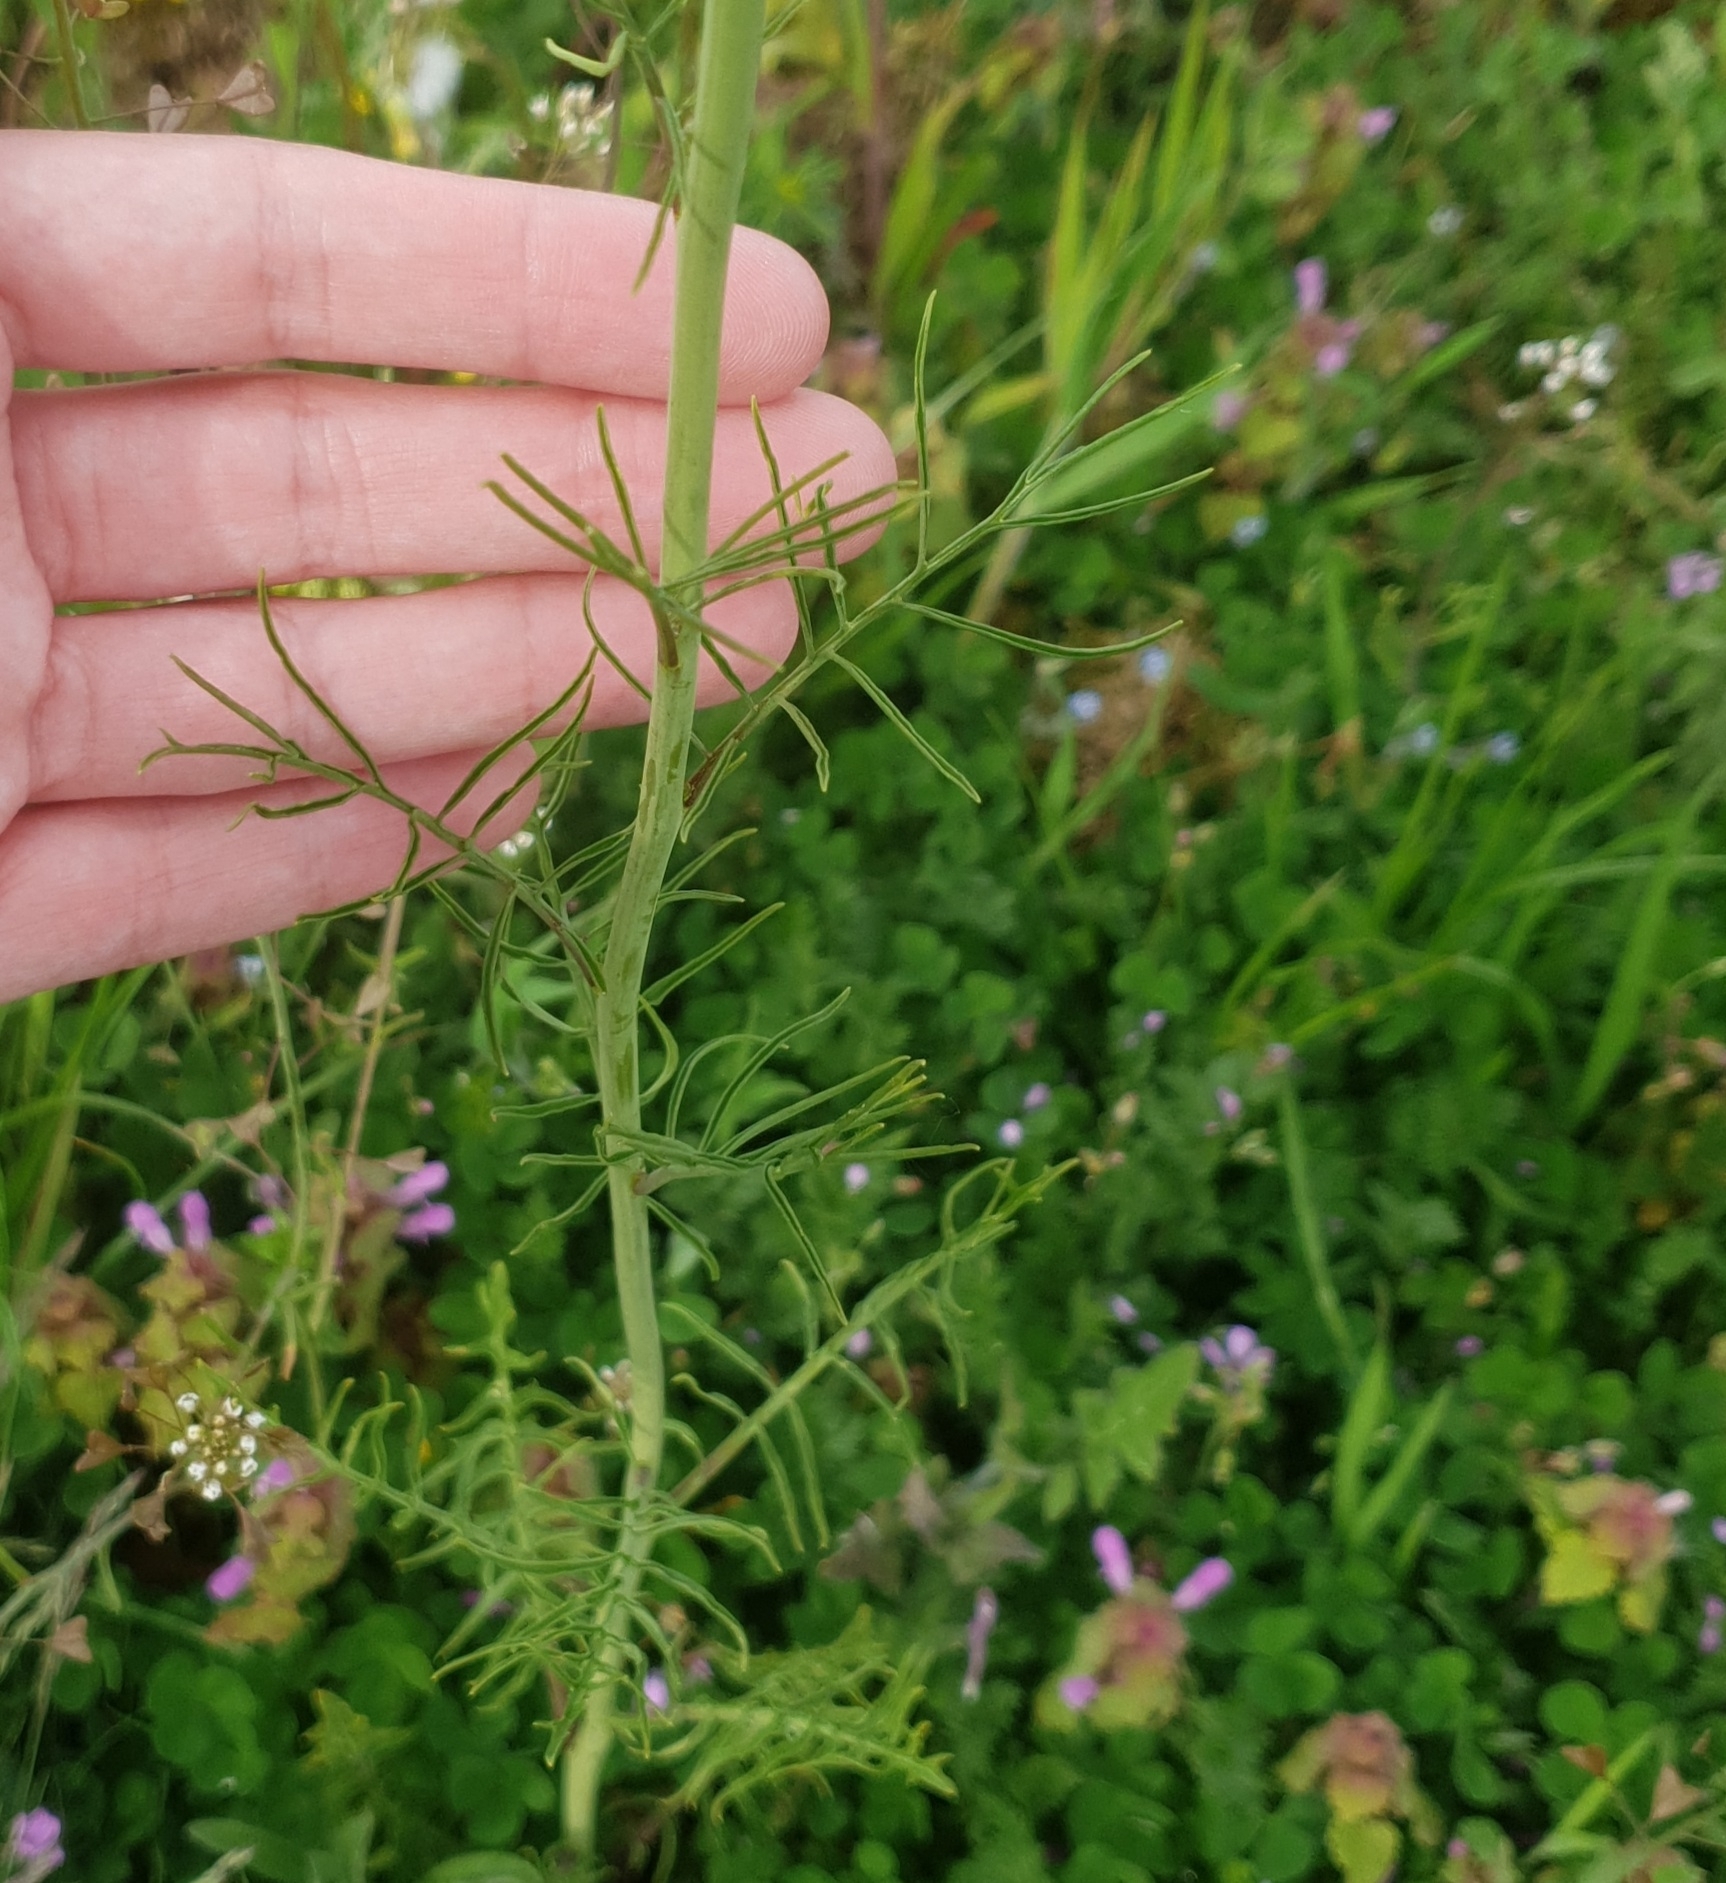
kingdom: Plantae
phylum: Tracheophyta
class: Magnoliopsida
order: Brassicales
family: Brassicaceae
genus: Sisymbrium
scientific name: Sisymbrium altissimum
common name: Tall rocket
